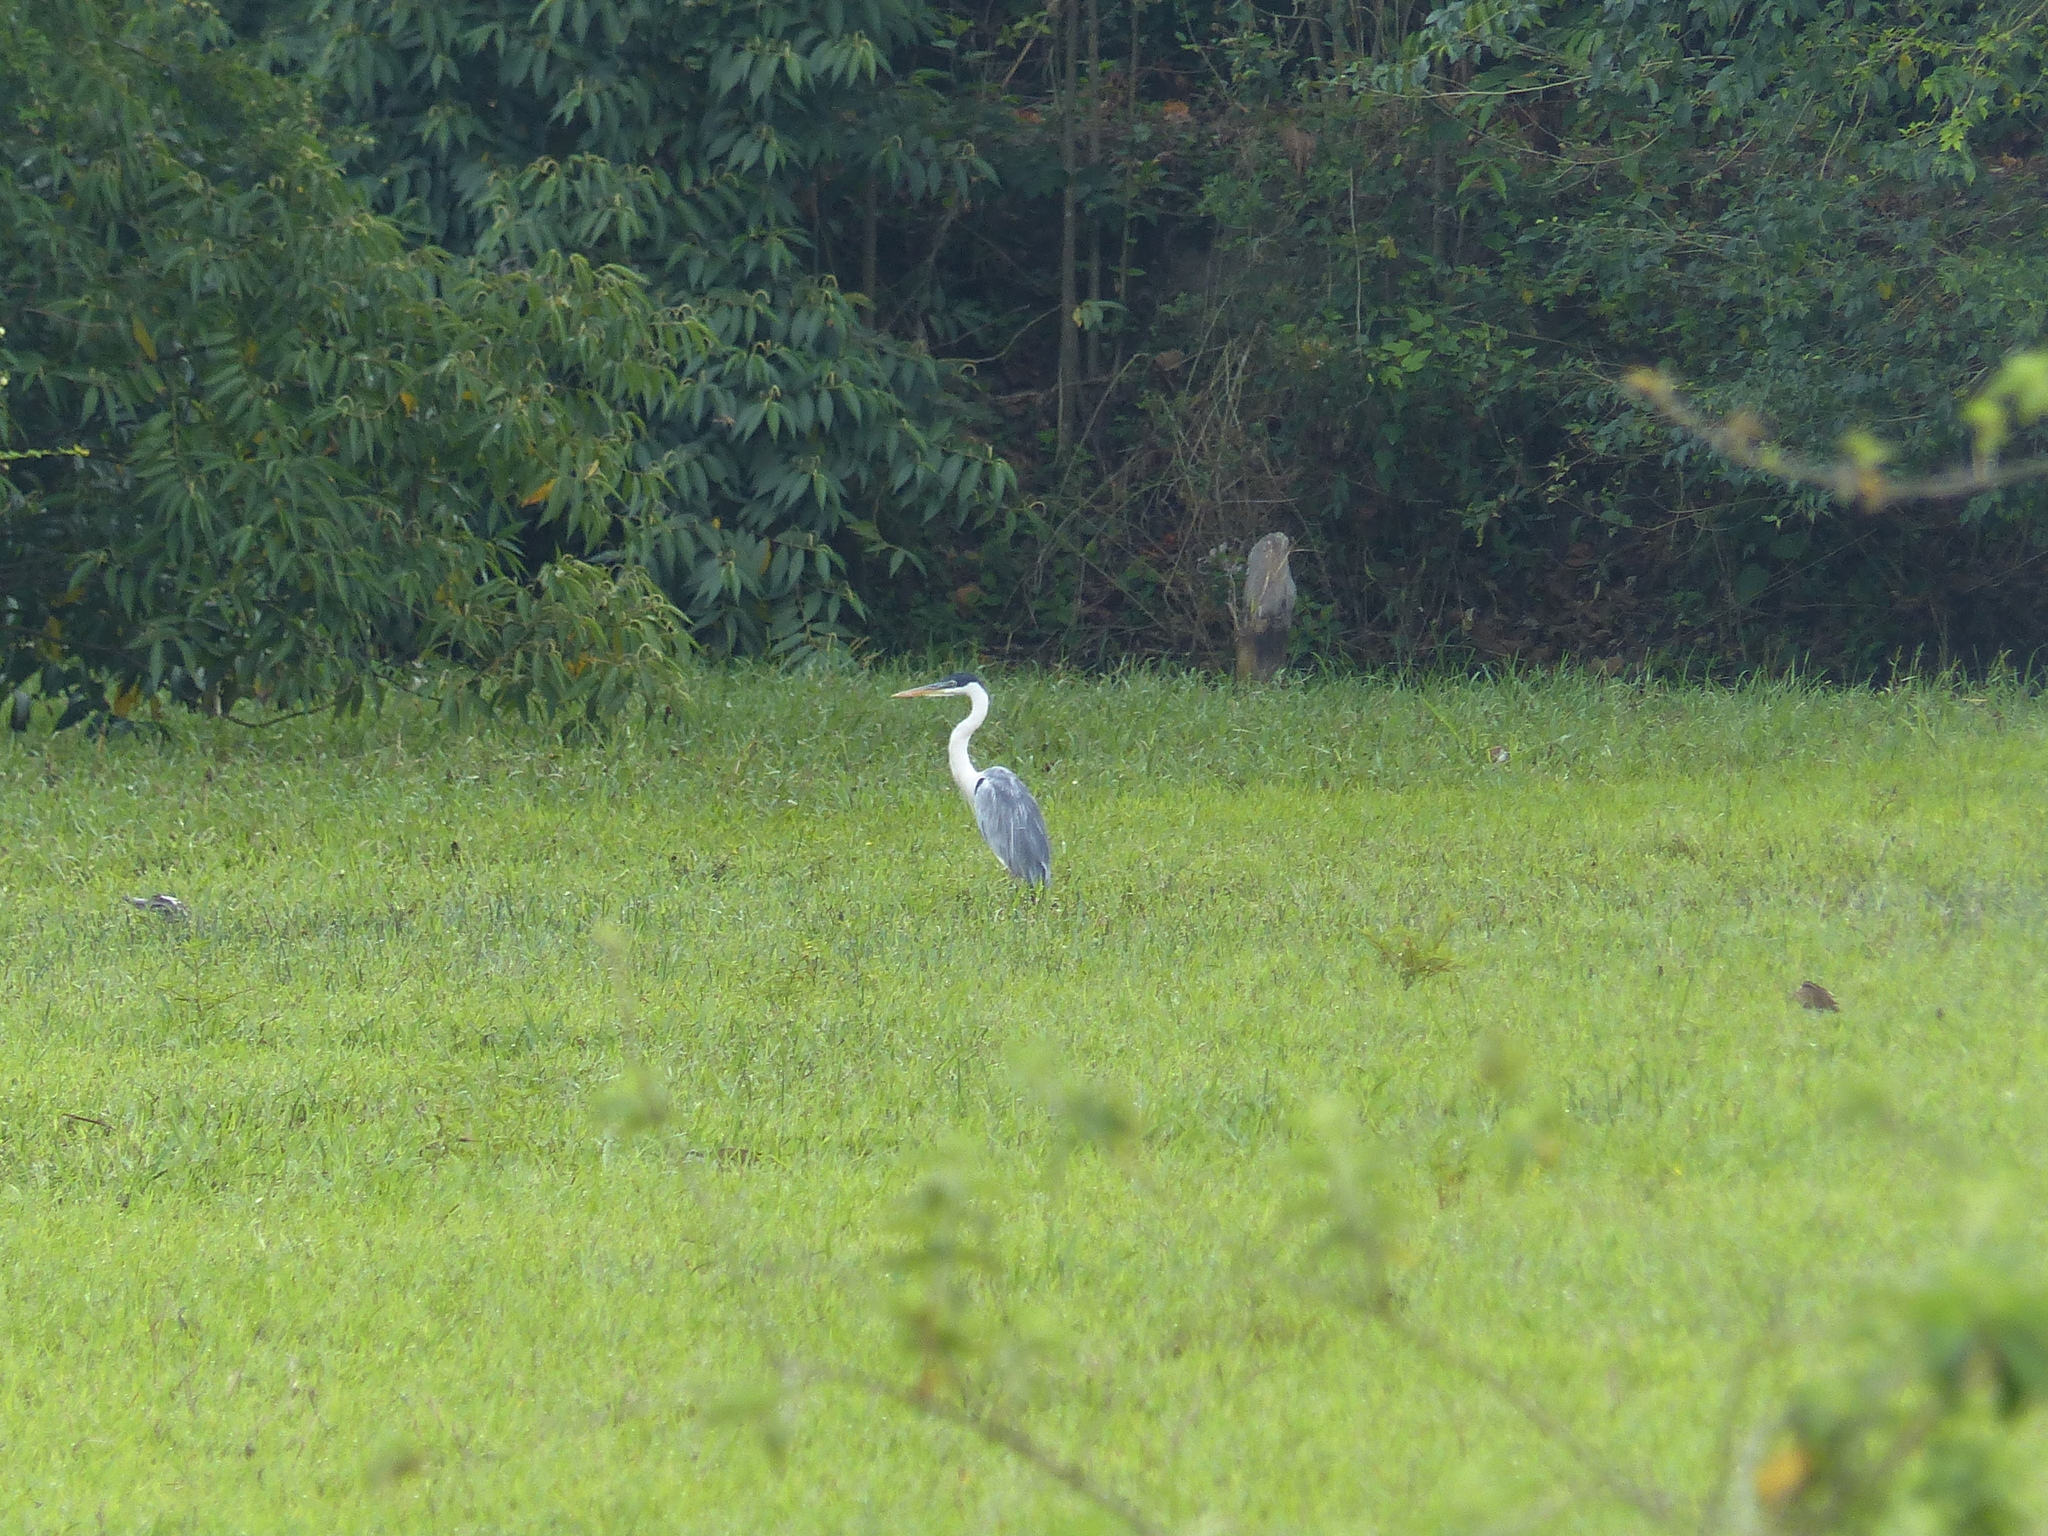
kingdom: Animalia
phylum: Chordata
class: Aves
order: Pelecaniformes
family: Ardeidae
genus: Ardea
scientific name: Ardea cocoi
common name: Cocoi heron
